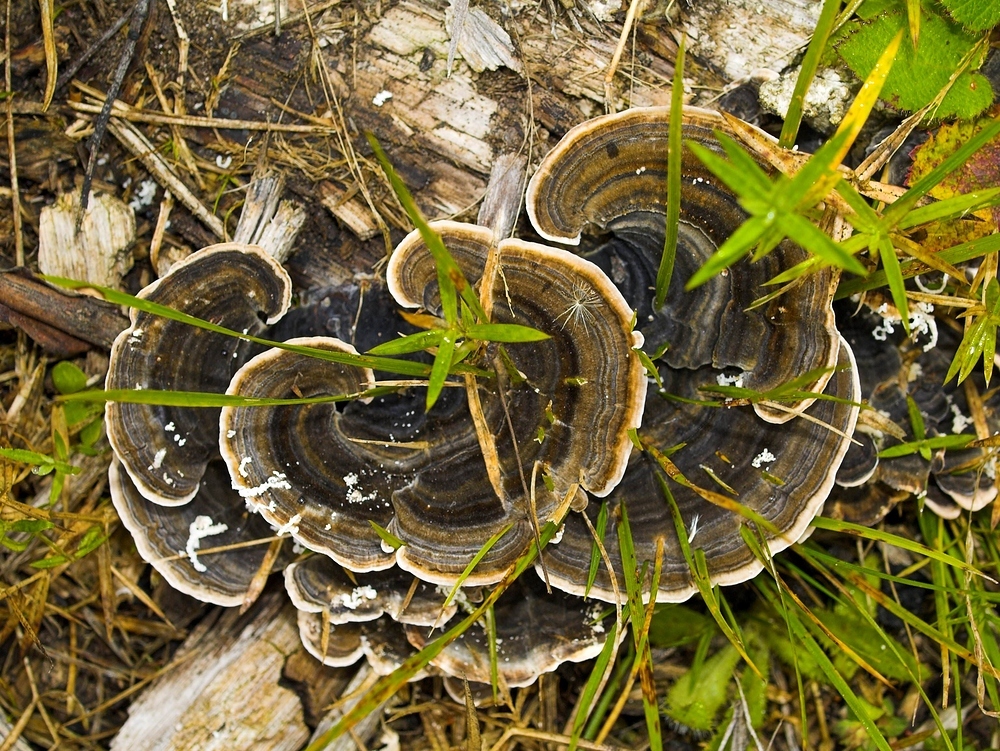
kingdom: Fungi
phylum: Basidiomycota
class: Agaricomycetes
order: Polyporales
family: Polyporaceae
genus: Trametes
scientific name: Trametes versicolor
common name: Turkeytail
